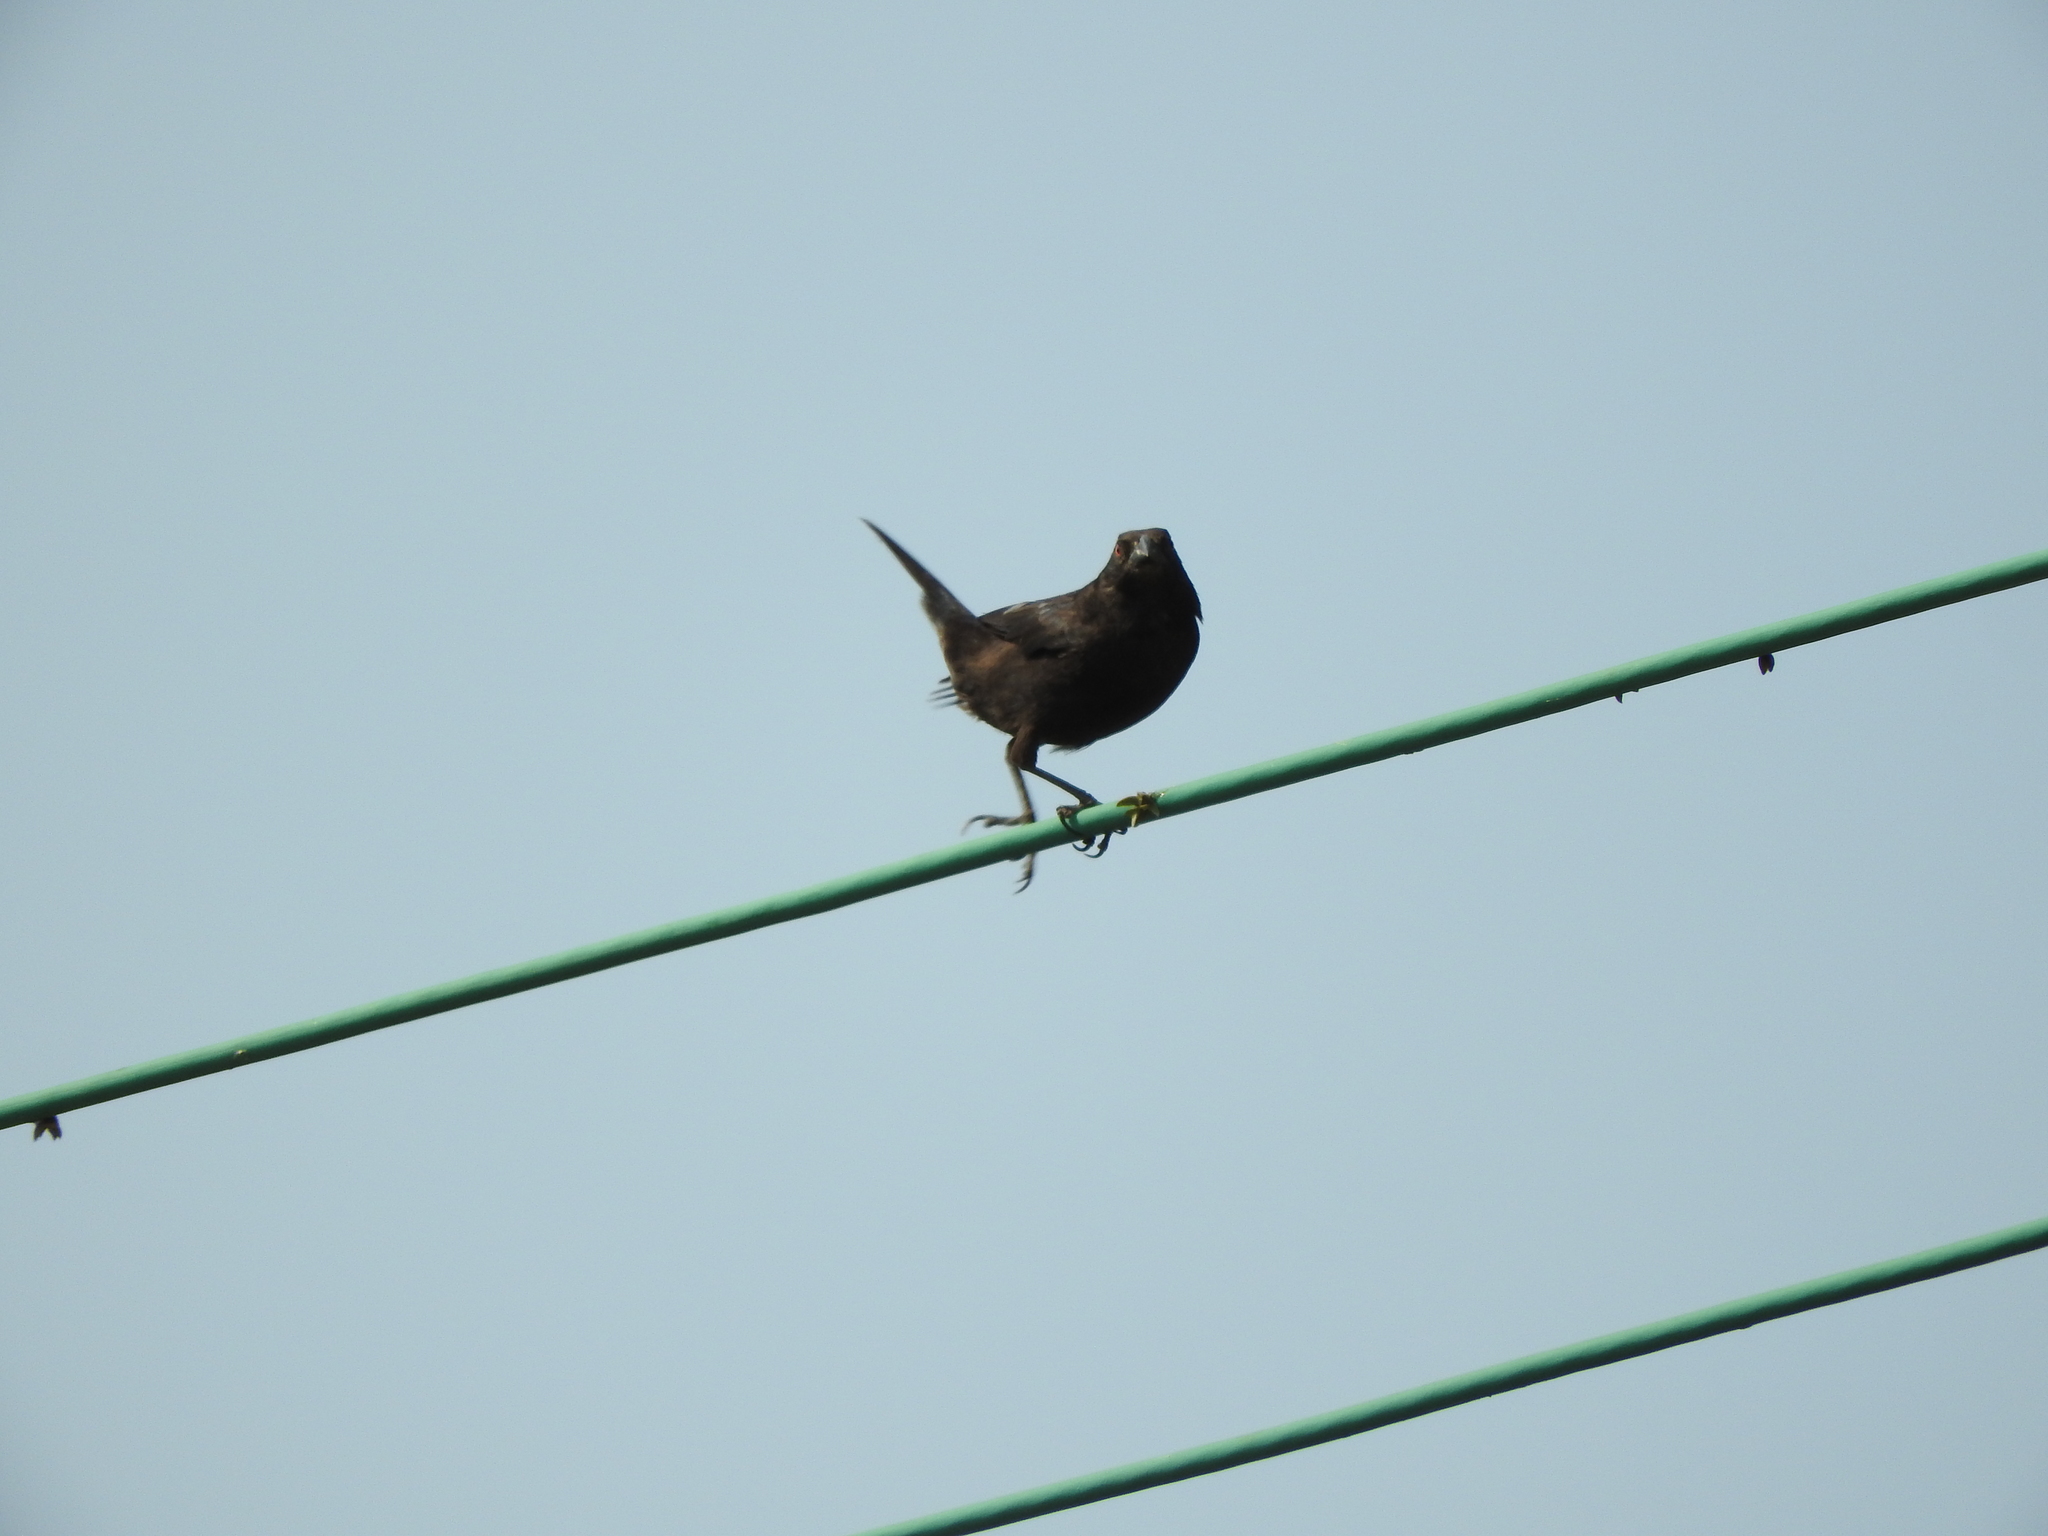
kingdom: Animalia
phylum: Chordata
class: Aves
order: Passeriformes
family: Icteridae
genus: Molothrus
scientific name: Molothrus aeneus
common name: Bronzed cowbird
